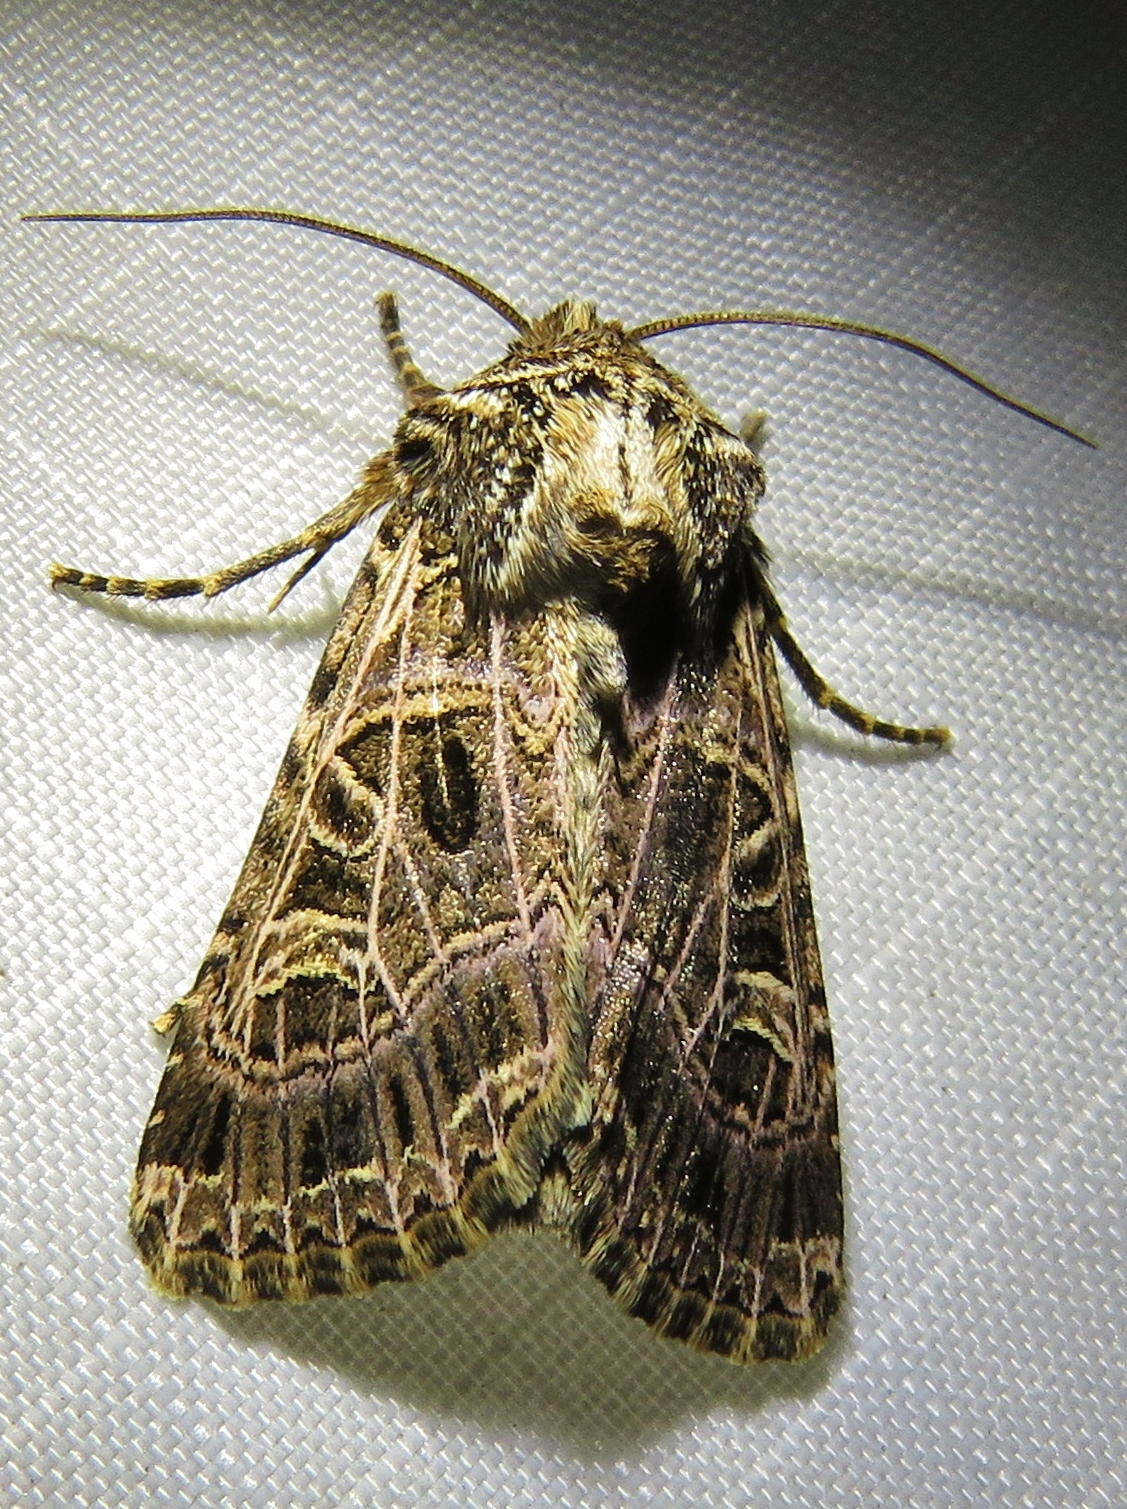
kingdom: Animalia
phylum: Arthropoda
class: Insecta
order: Lepidoptera
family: Noctuidae
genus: Sideridis
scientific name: Sideridis reticulata
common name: Bordered gothic
